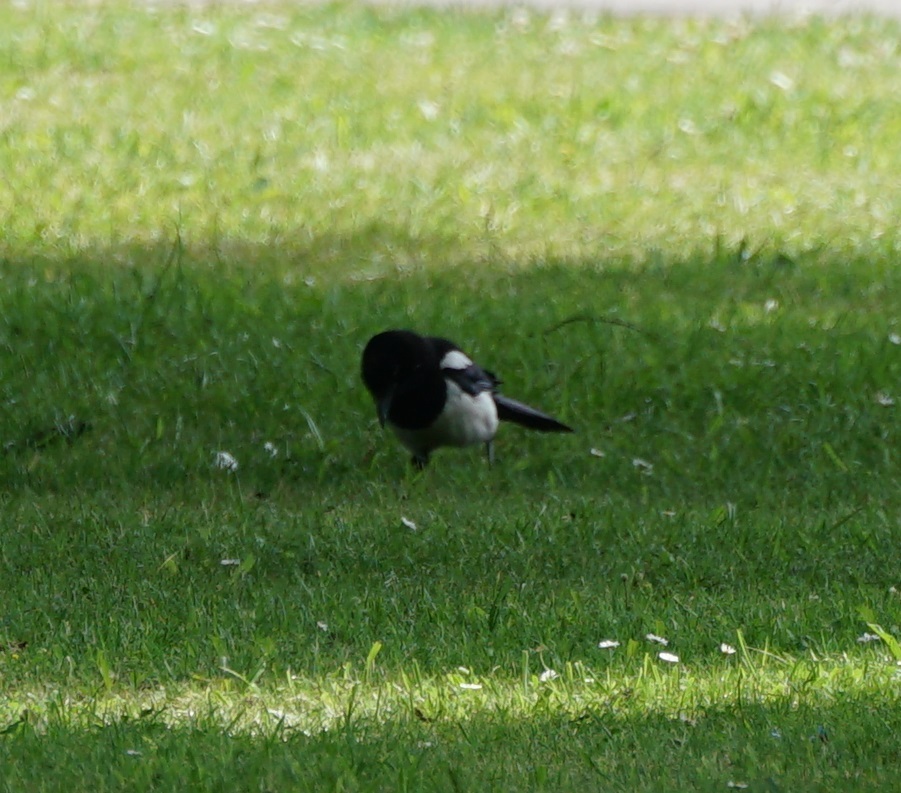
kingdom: Animalia
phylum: Chordata
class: Aves
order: Passeriformes
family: Corvidae
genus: Pica
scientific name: Pica pica
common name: Eurasian magpie
